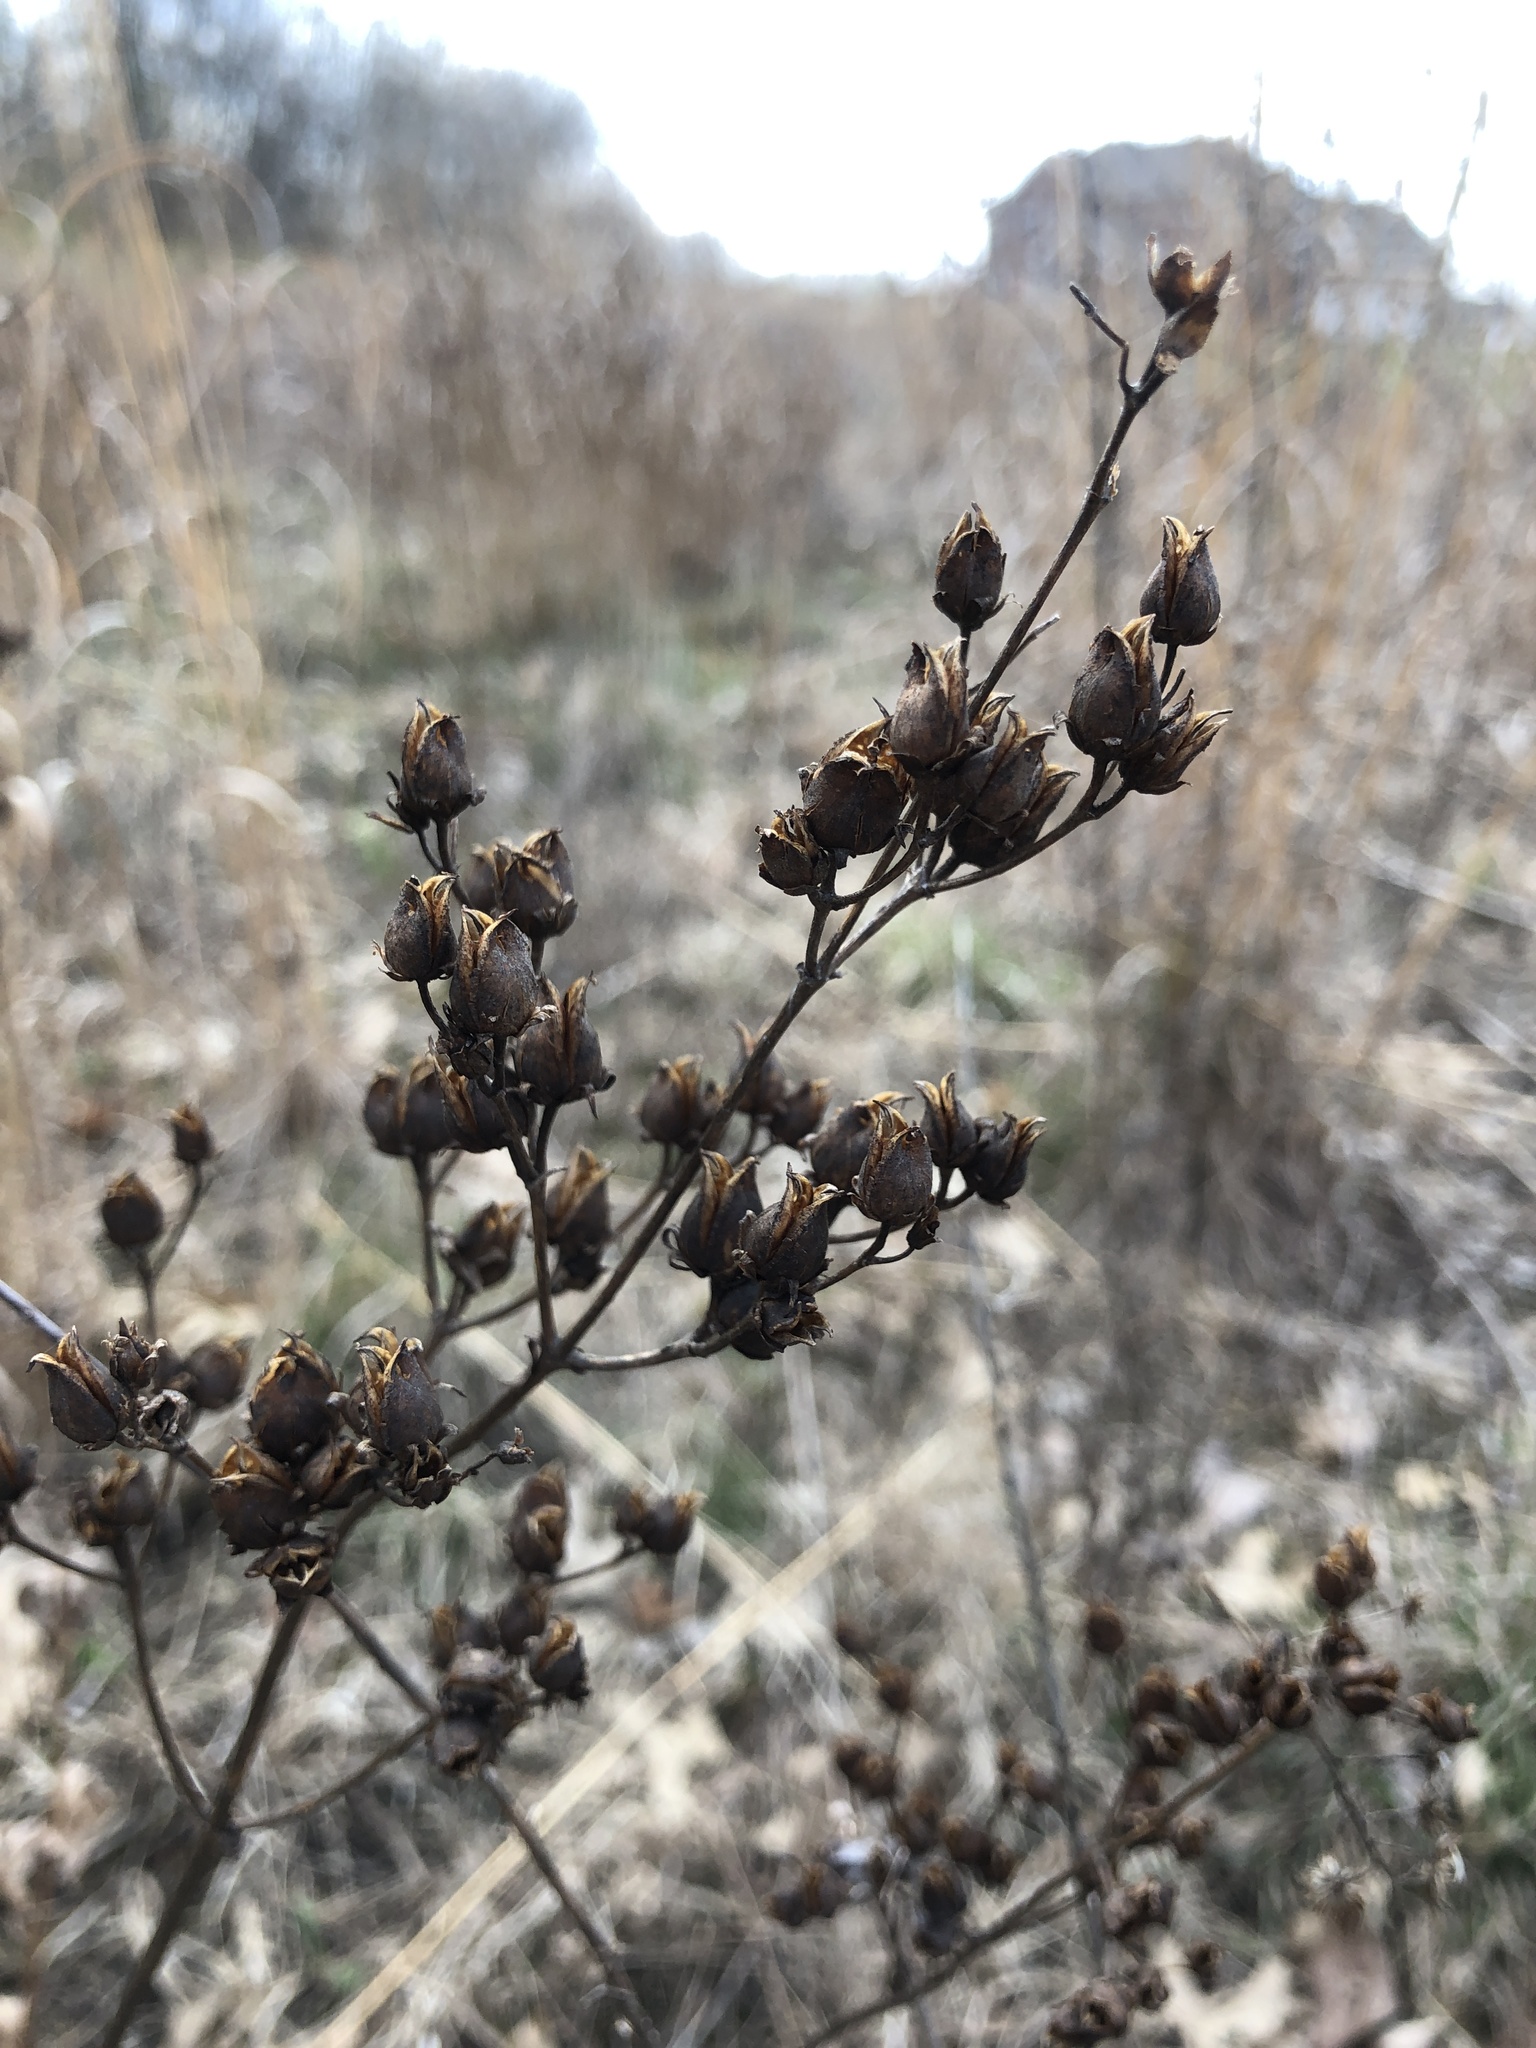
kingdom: Plantae
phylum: Tracheophyta
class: Magnoliopsida
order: Lamiales
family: Plantaginaceae
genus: Penstemon
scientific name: Penstemon digitalis
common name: Foxglove beardtongue
